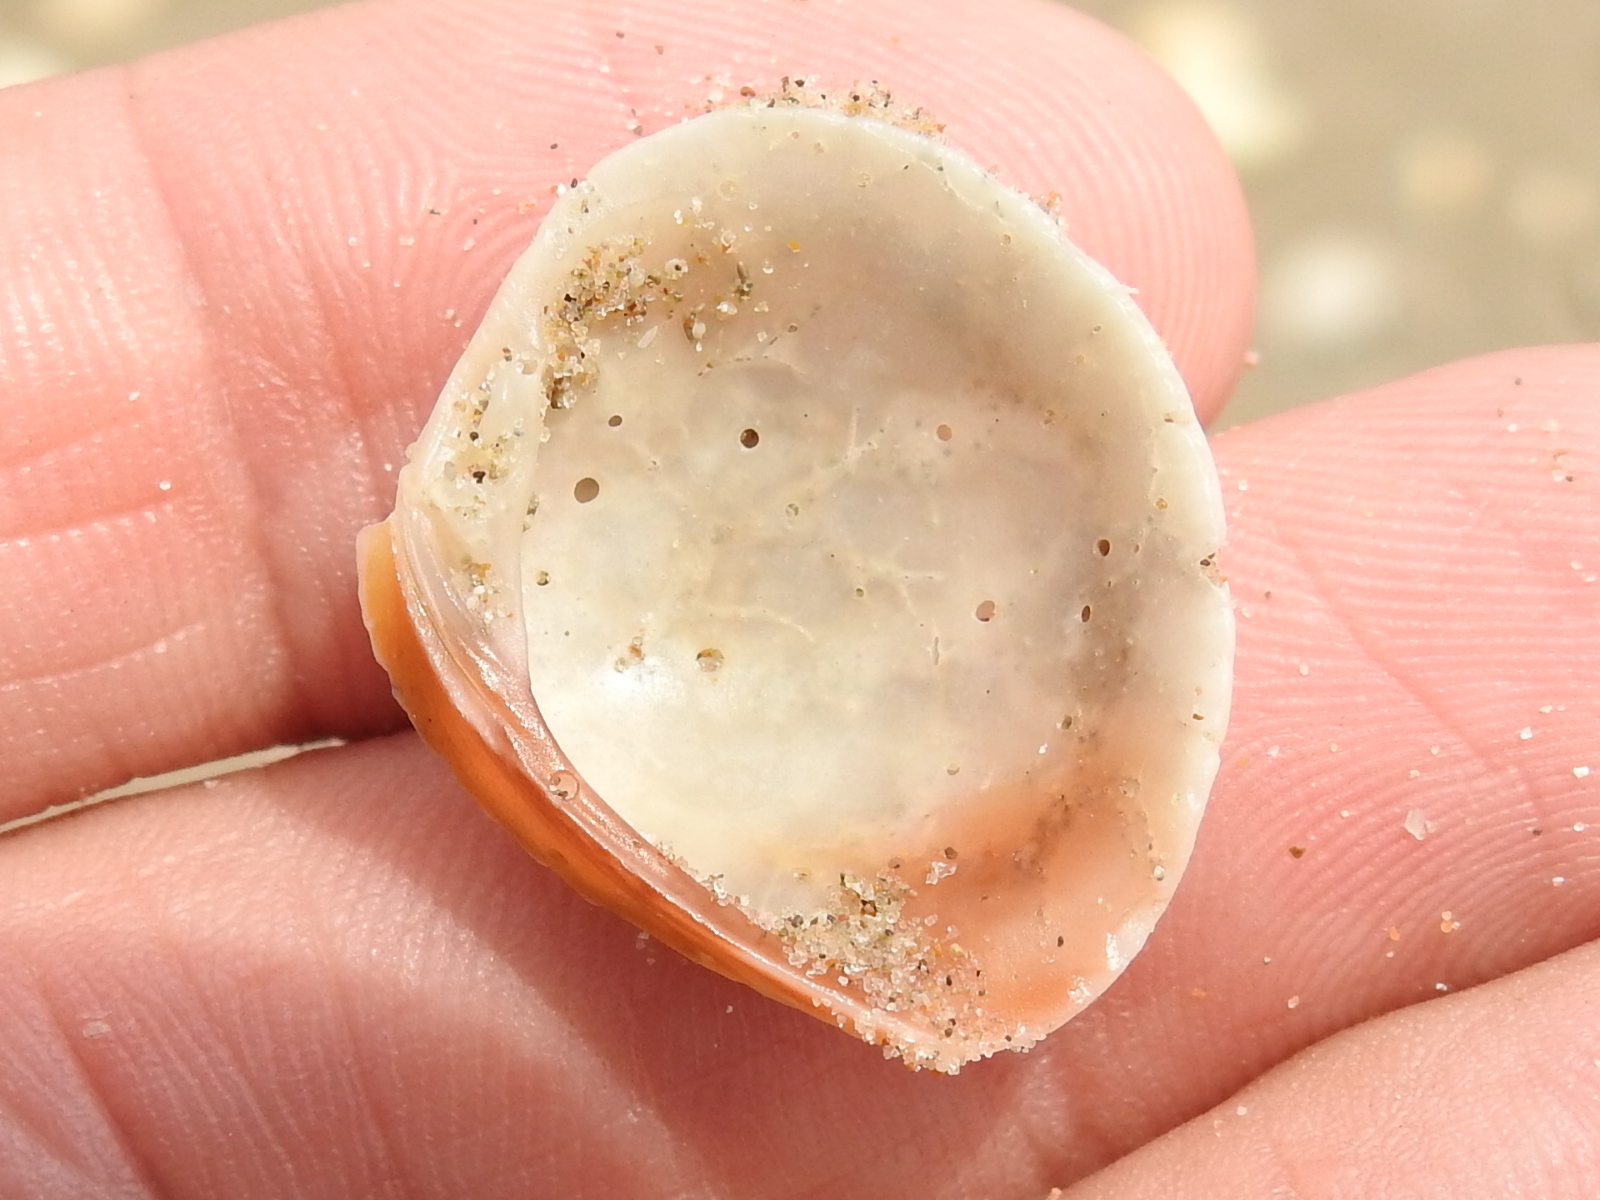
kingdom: Animalia
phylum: Mollusca
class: Bivalvia
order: Venerida
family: Veneridae
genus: Chione
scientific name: Chione elevata
